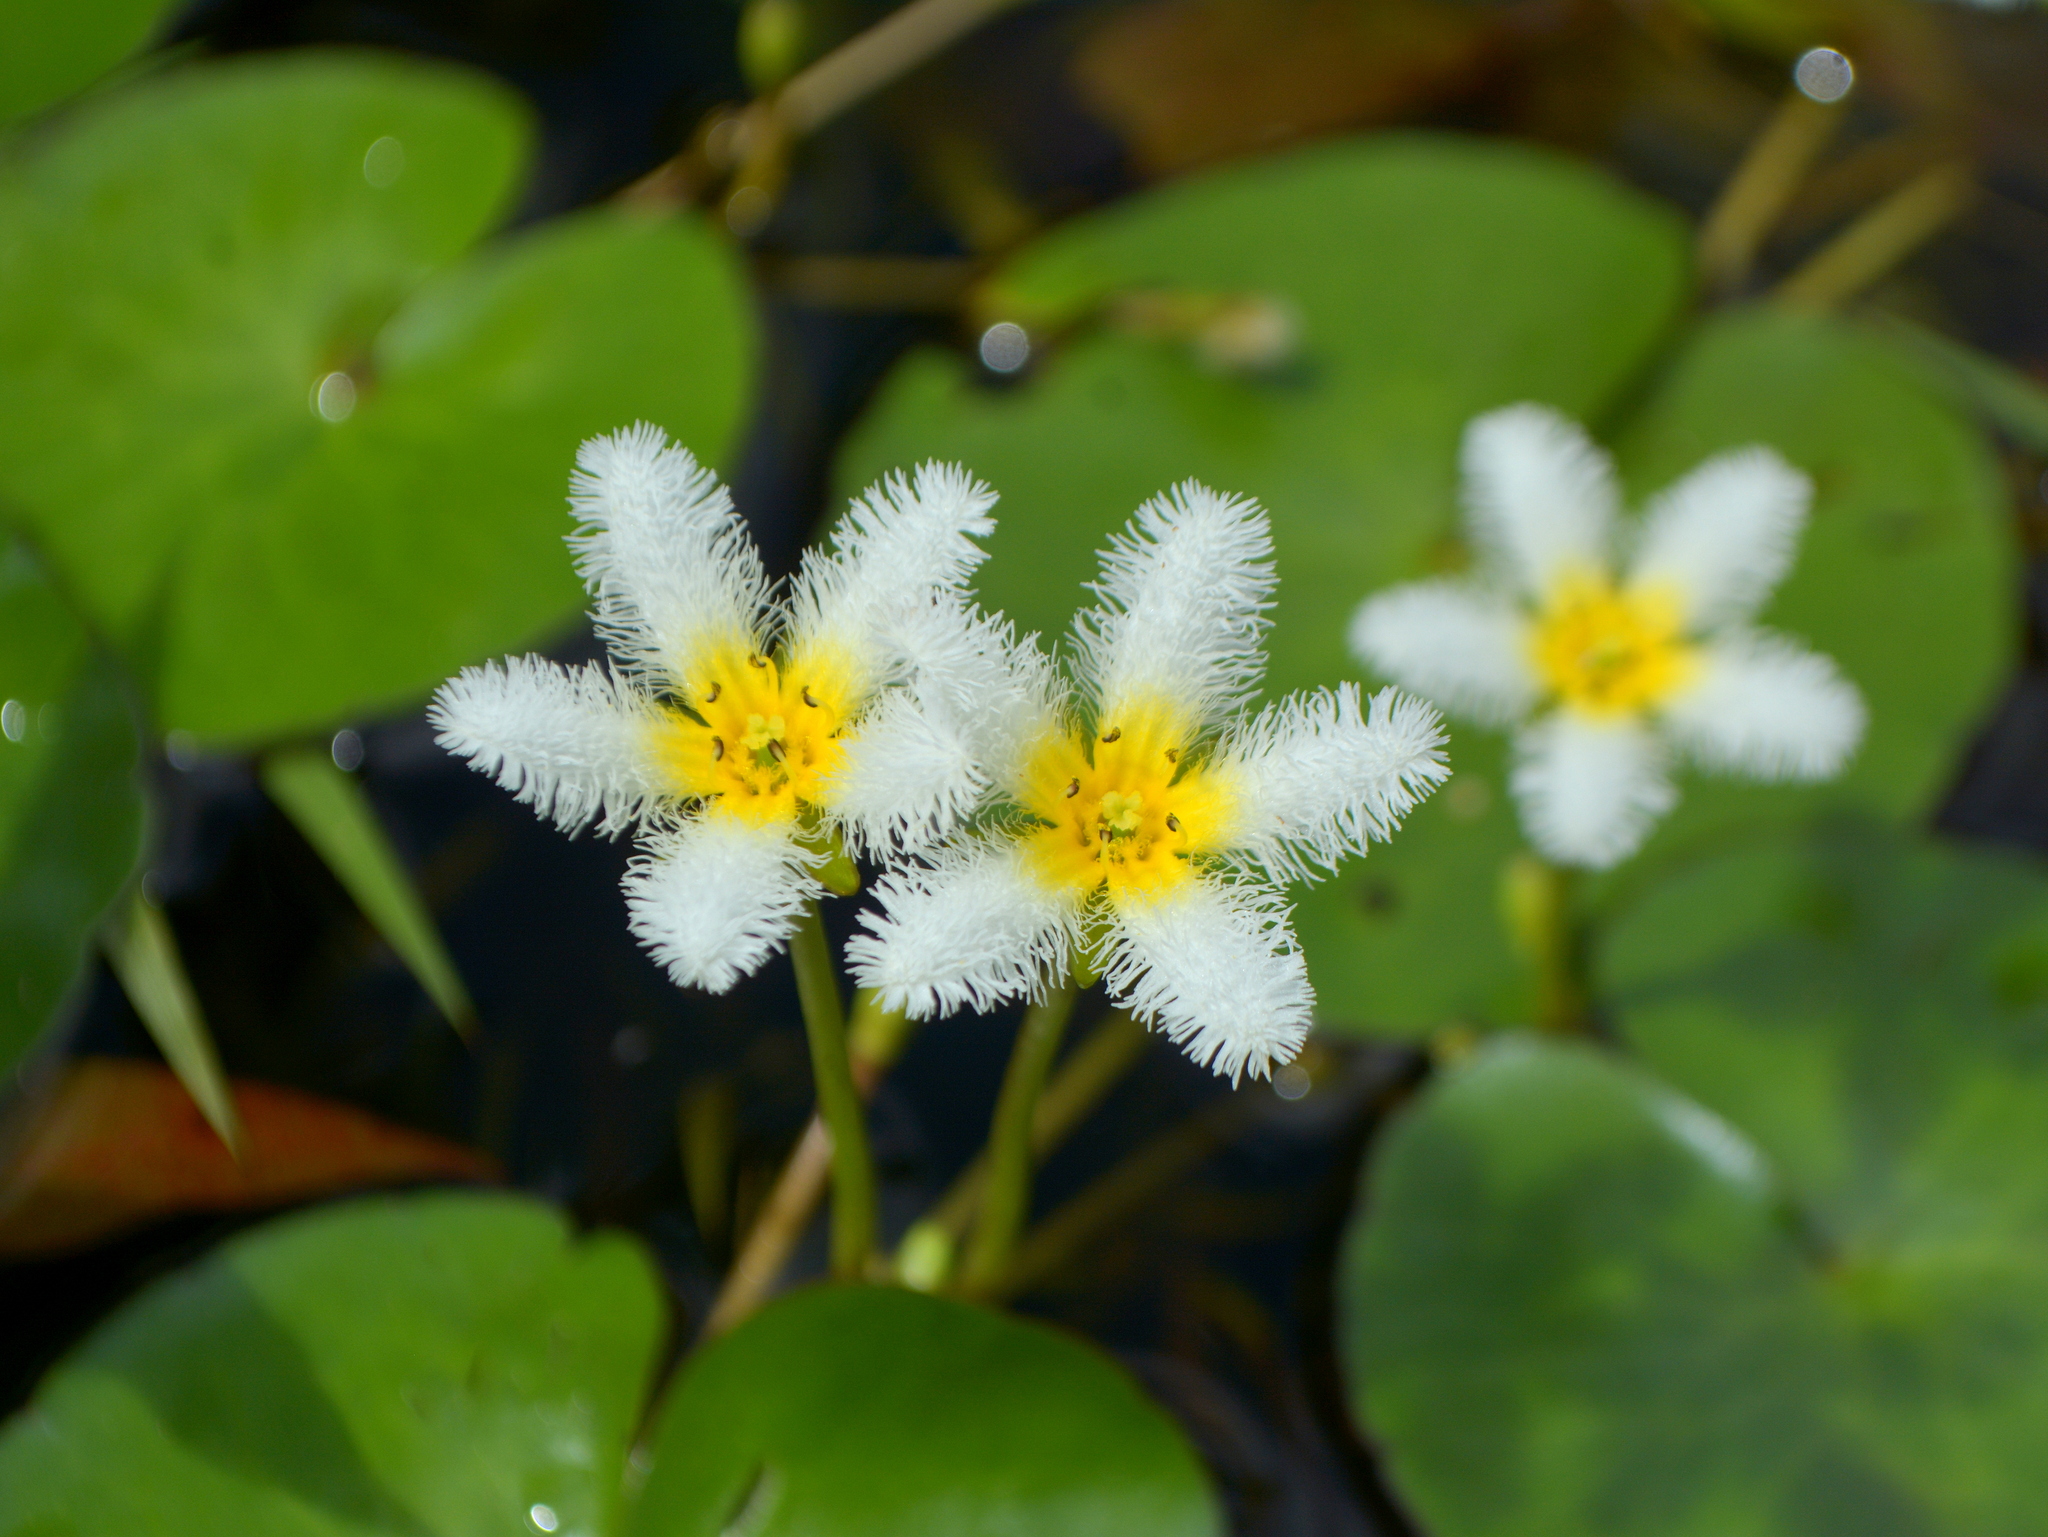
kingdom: Plantae
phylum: Tracheophyta
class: Magnoliopsida
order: Asterales
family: Menyanthaceae
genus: Nymphoides
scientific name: Nymphoides humboldtiana
